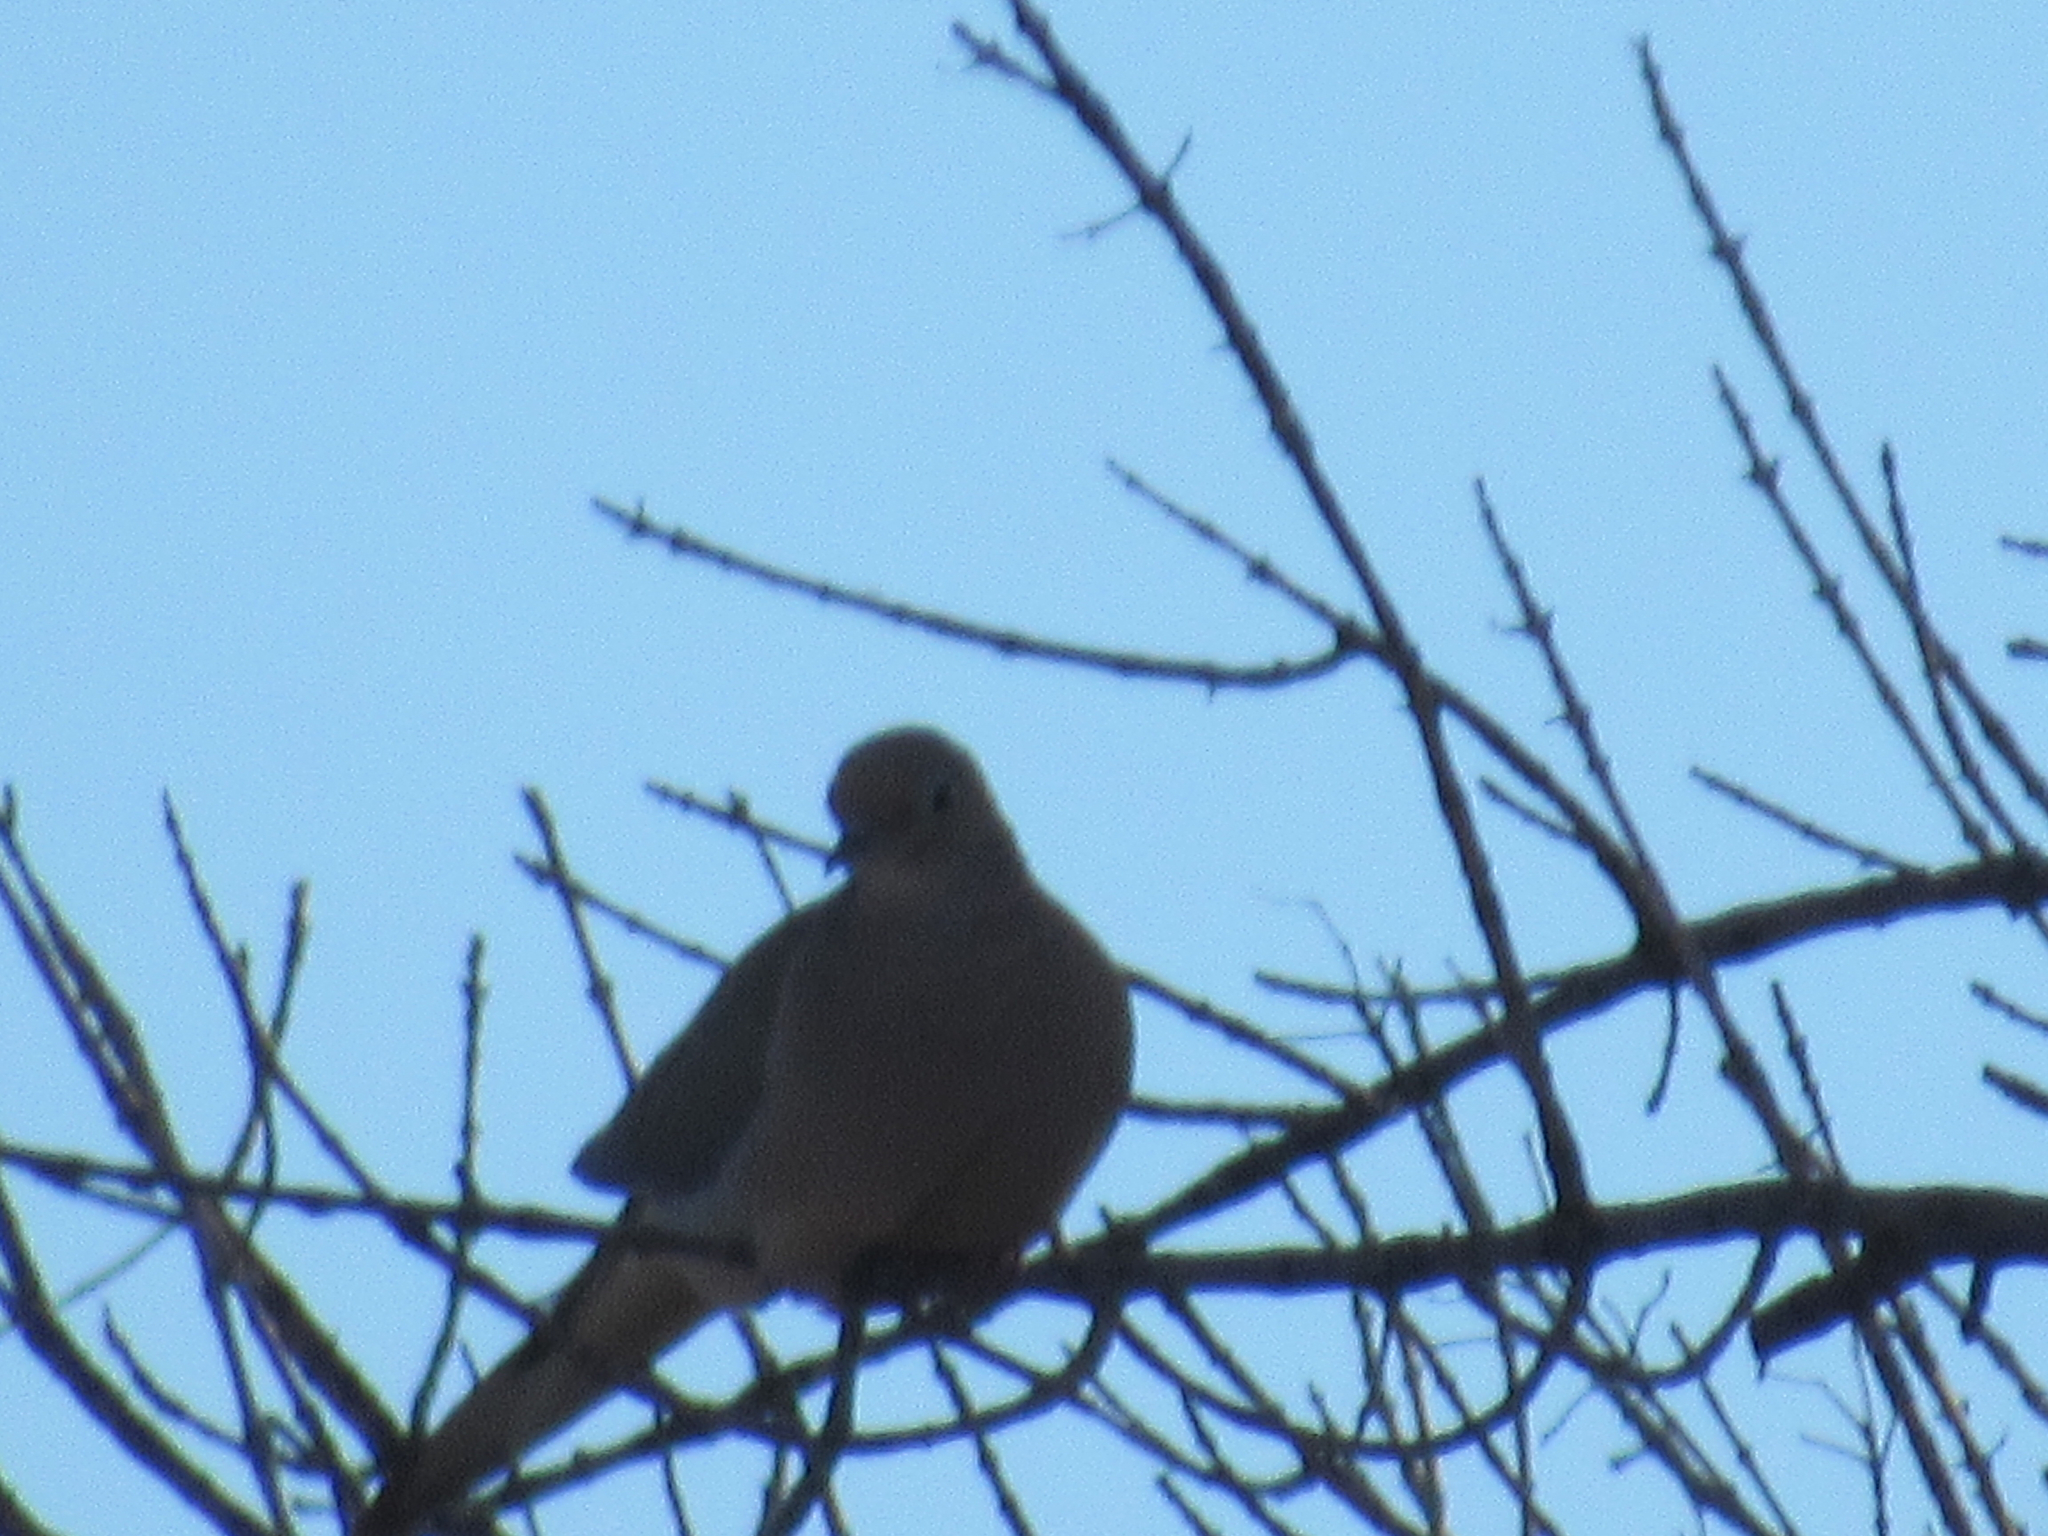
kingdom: Animalia
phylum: Chordata
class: Aves
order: Columbiformes
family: Columbidae
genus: Zenaida
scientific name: Zenaida macroura
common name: Mourning dove
